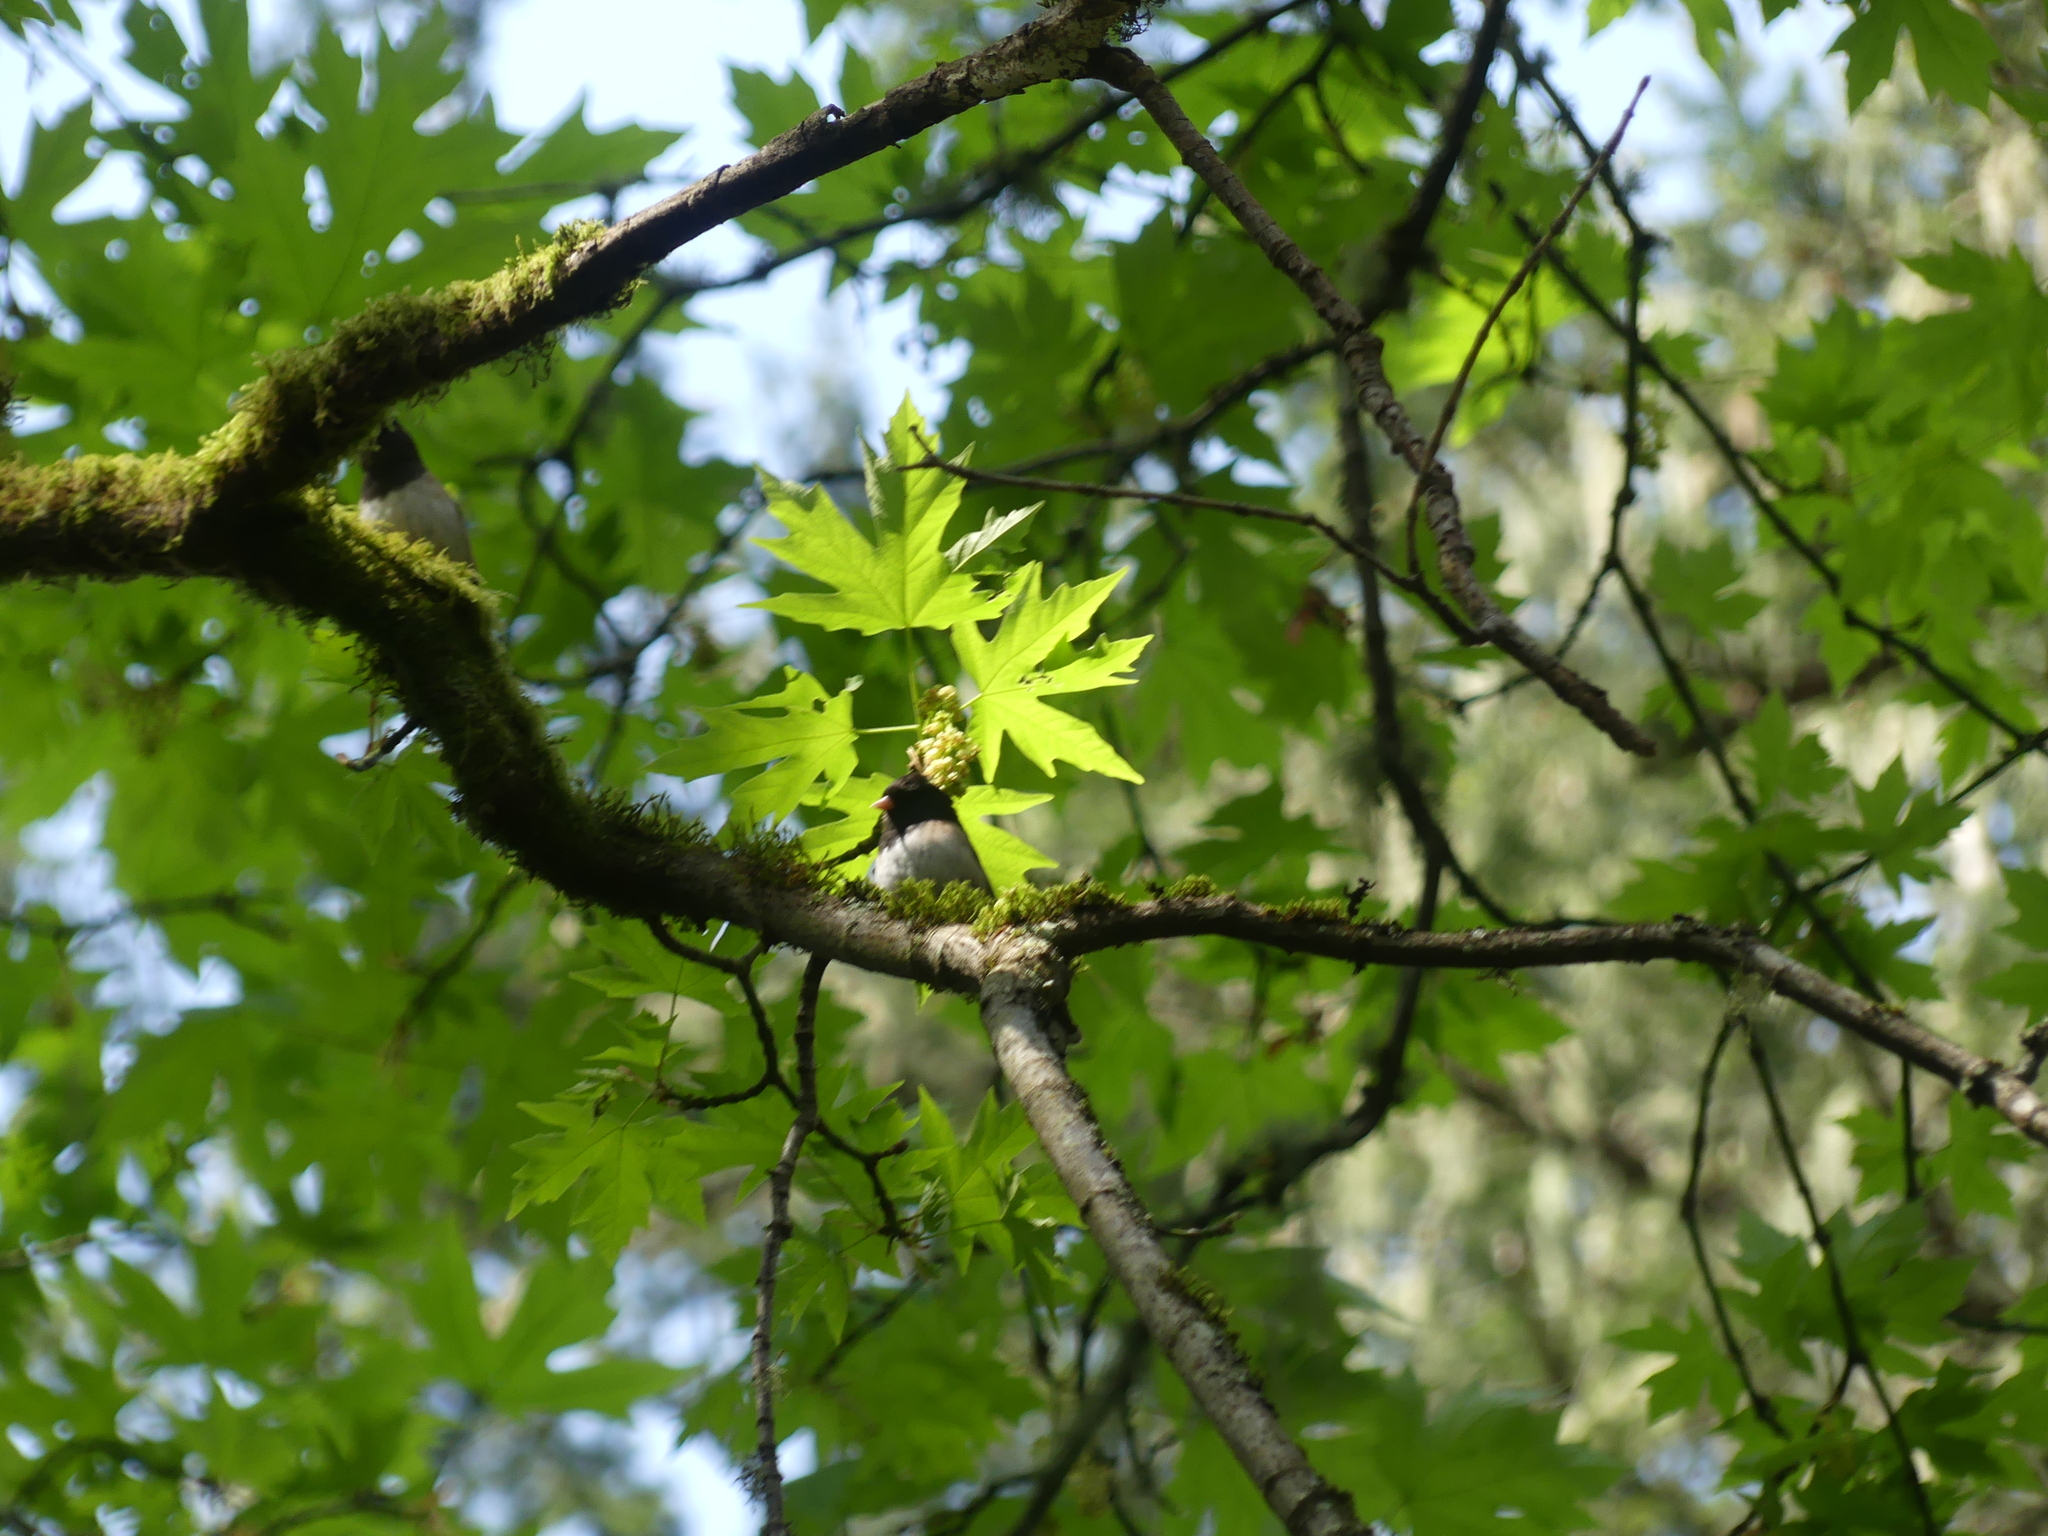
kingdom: Animalia
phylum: Chordata
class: Aves
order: Passeriformes
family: Passerellidae
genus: Junco
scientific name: Junco hyemalis
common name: Dark-eyed junco
